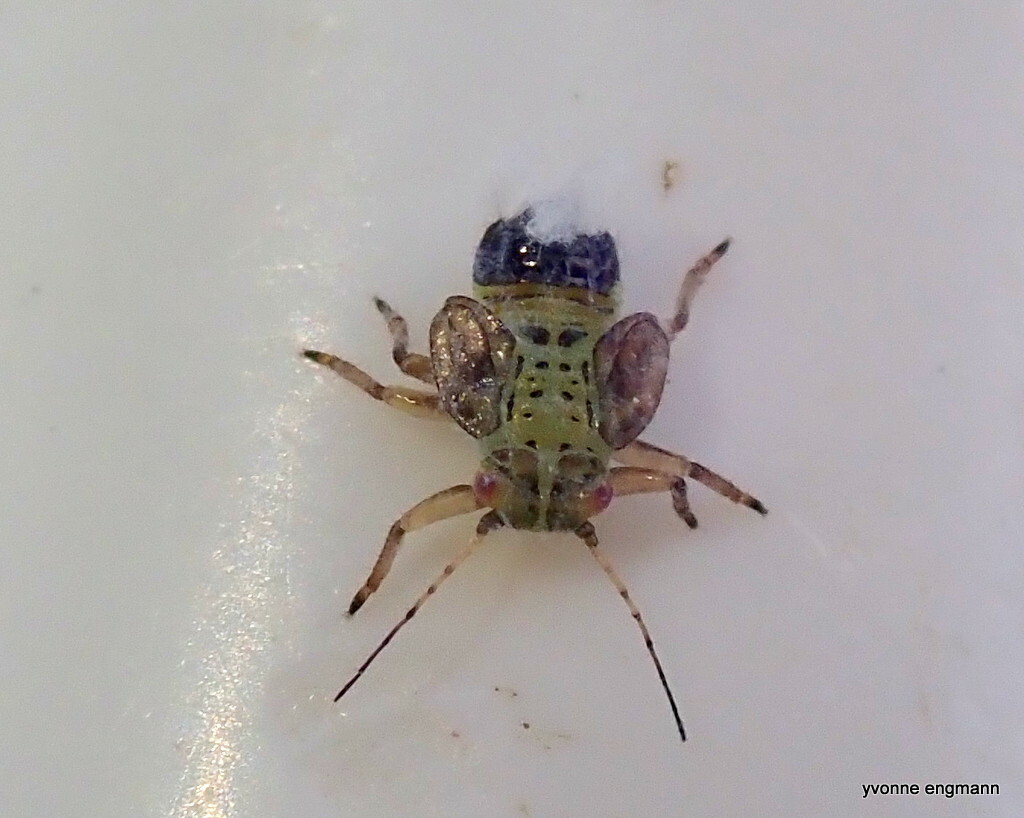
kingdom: Animalia
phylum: Arthropoda
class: Insecta
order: Hemiptera
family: Psyllidae
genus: Psylla
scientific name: Psylla alni
